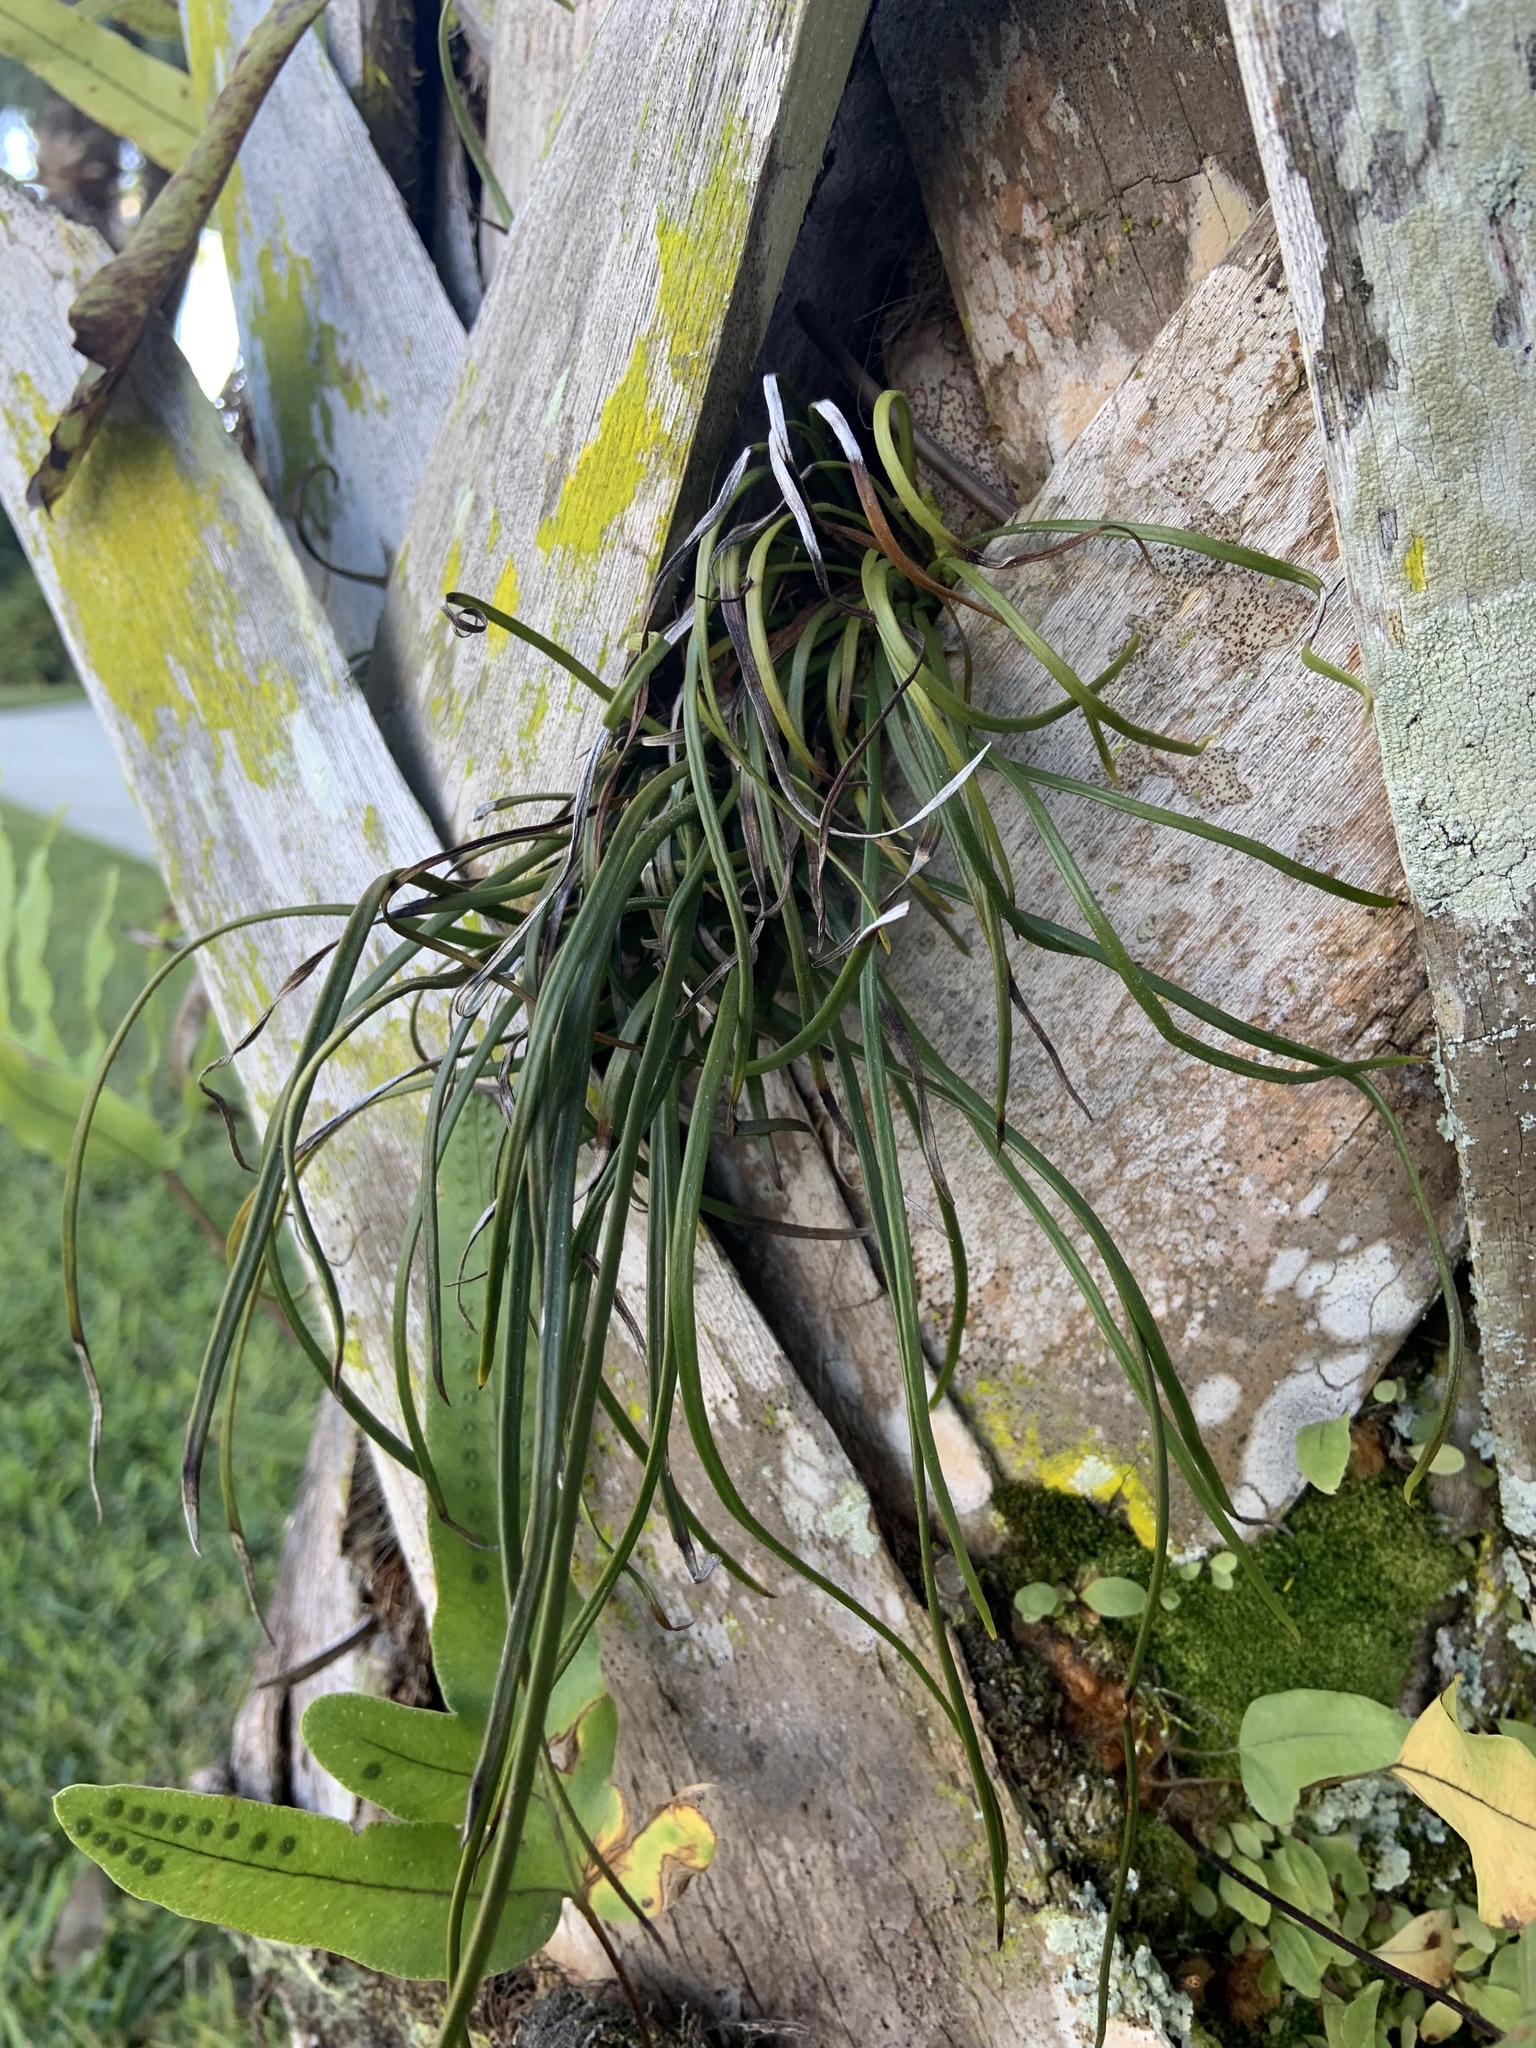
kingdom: Plantae
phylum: Tracheophyta
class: Polypodiopsida
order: Polypodiales
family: Pteridaceae
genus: Vittaria
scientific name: Vittaria lineata
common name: Shoestring fern
